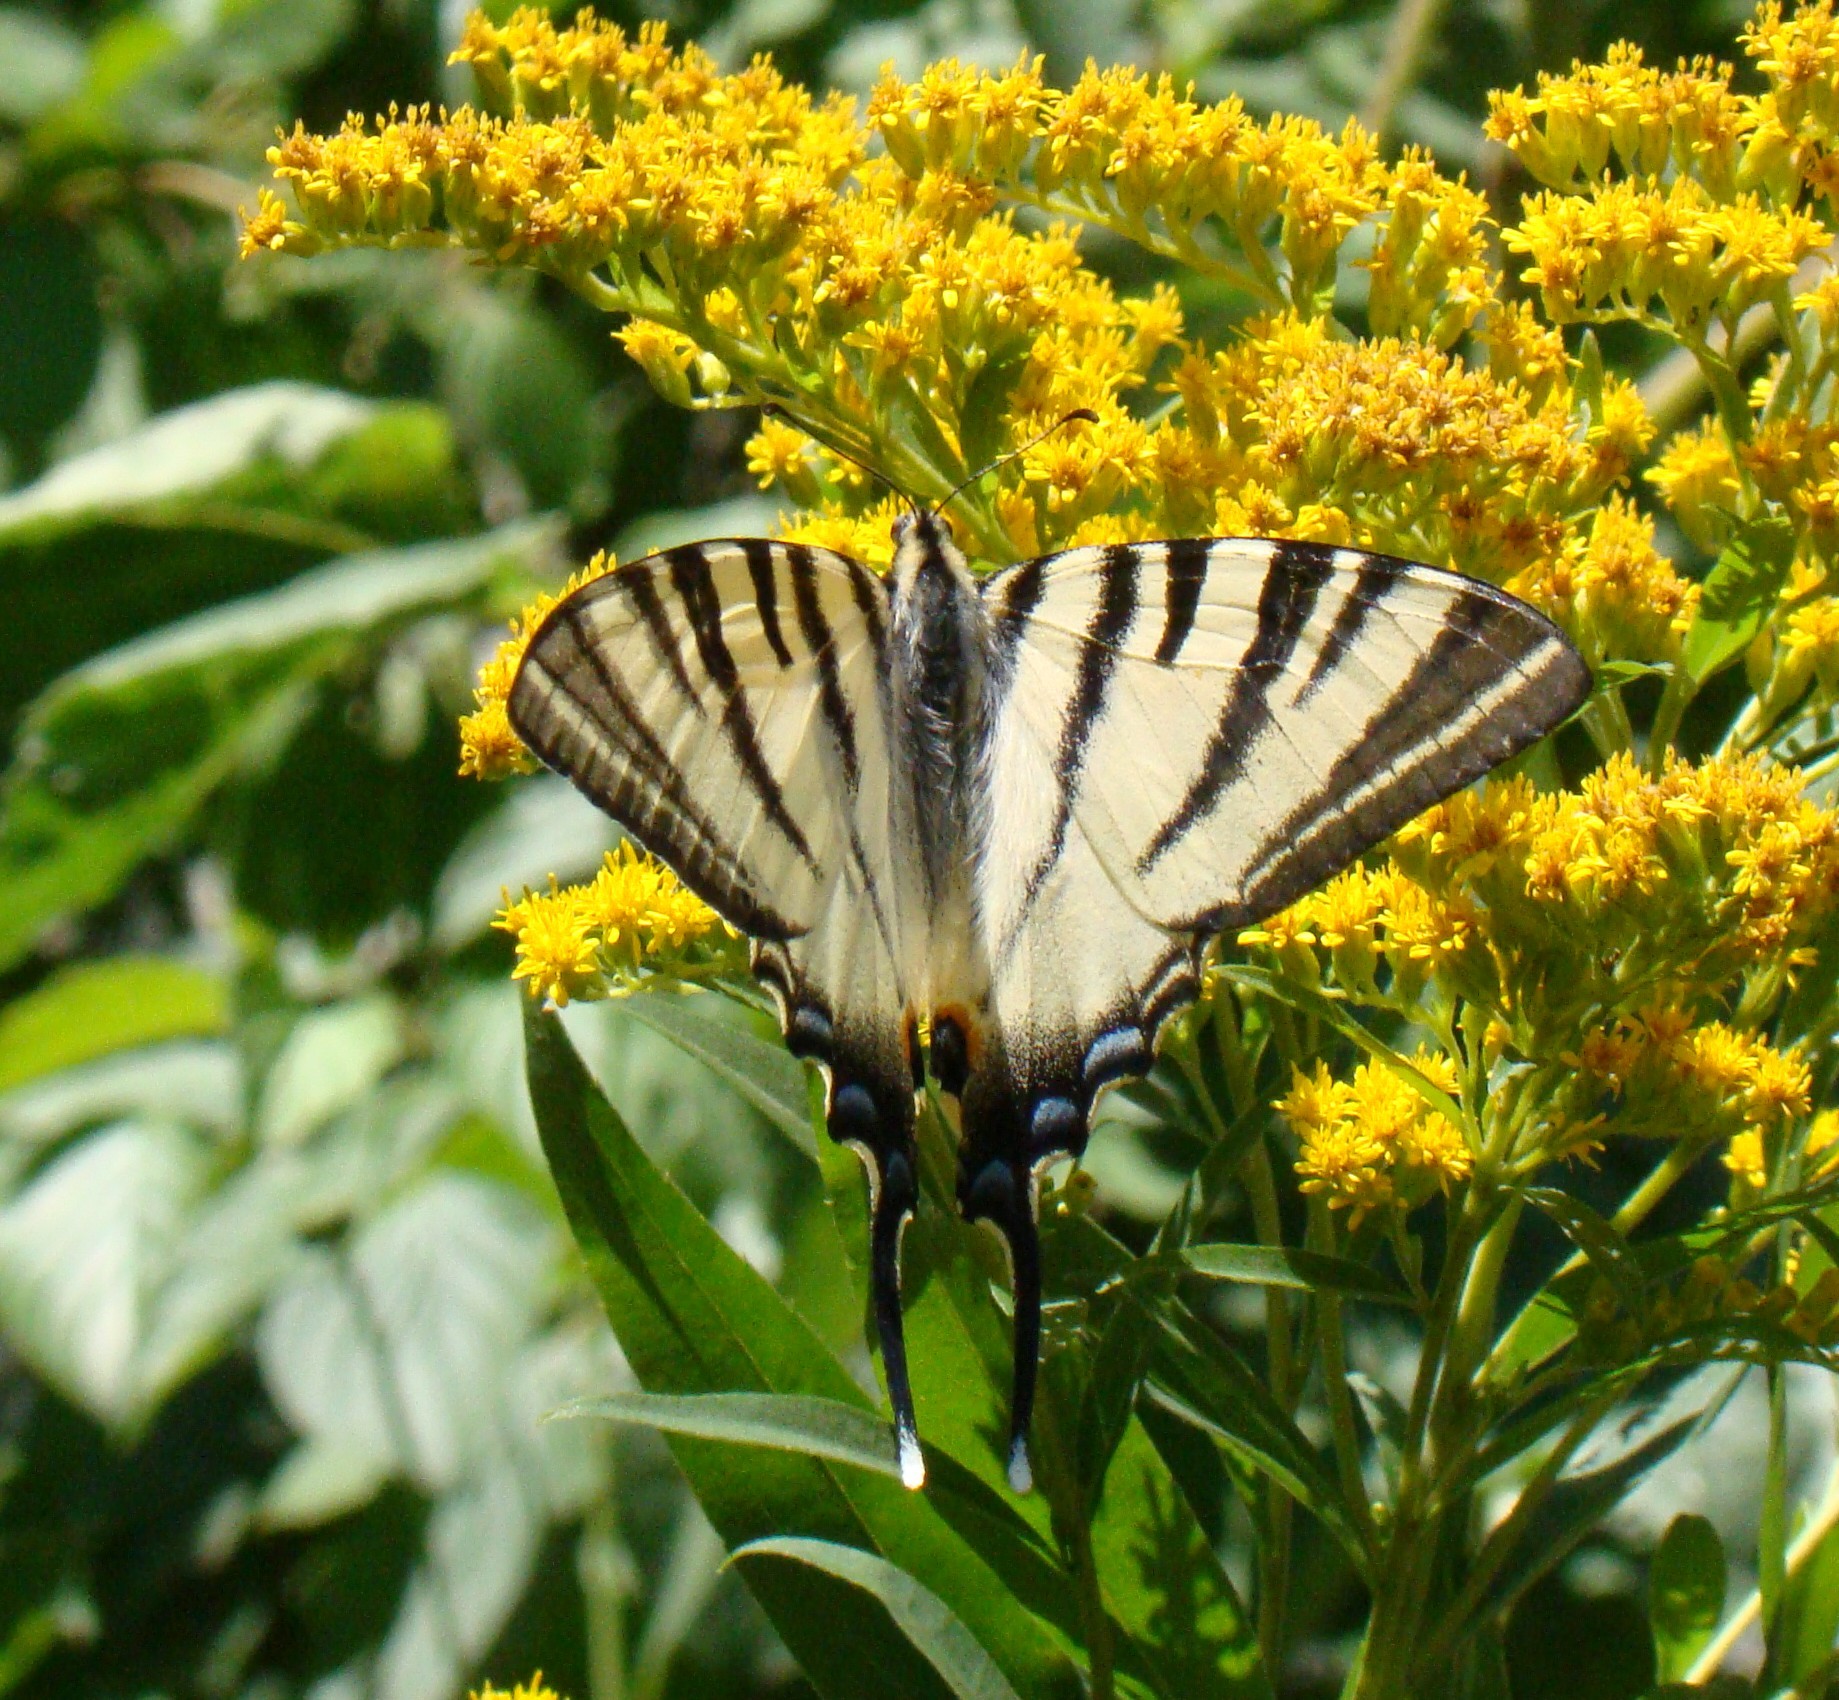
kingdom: Animalia
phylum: Arthropoda
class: Insecta
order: Lepidoptera
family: Papilionidae
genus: Iphiclides
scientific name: Iphiclides podalirius
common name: Scarce swallowtail
